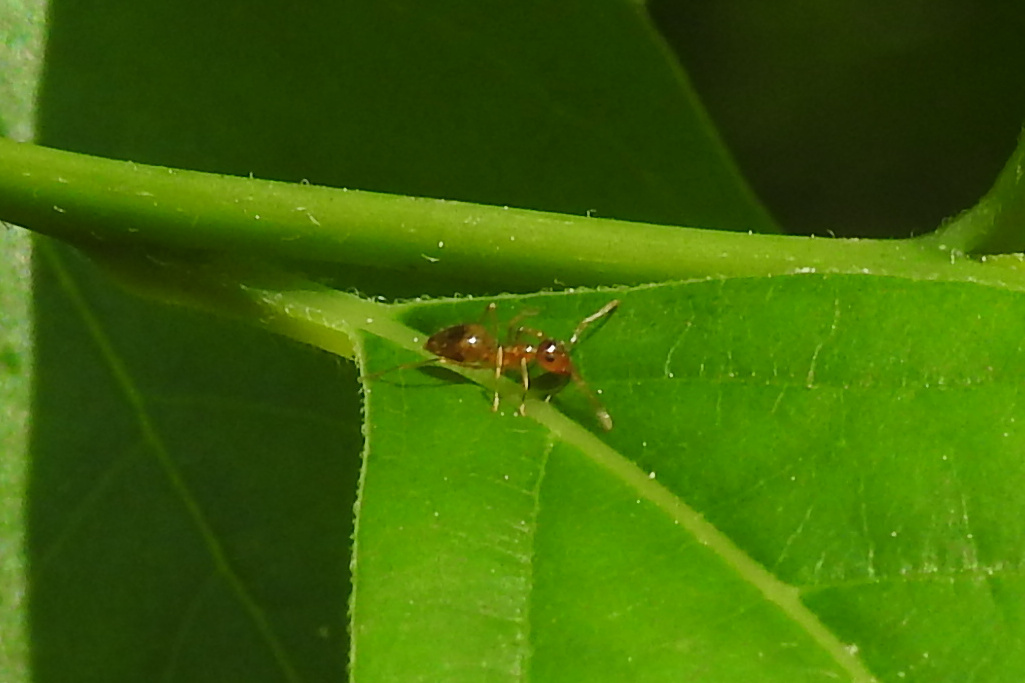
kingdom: Animalia
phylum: Arthropoda
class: Insecta
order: Hymenoptera
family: Formicidae
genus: Prenolepis
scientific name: Prenolepis imparis
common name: Small honey ant
